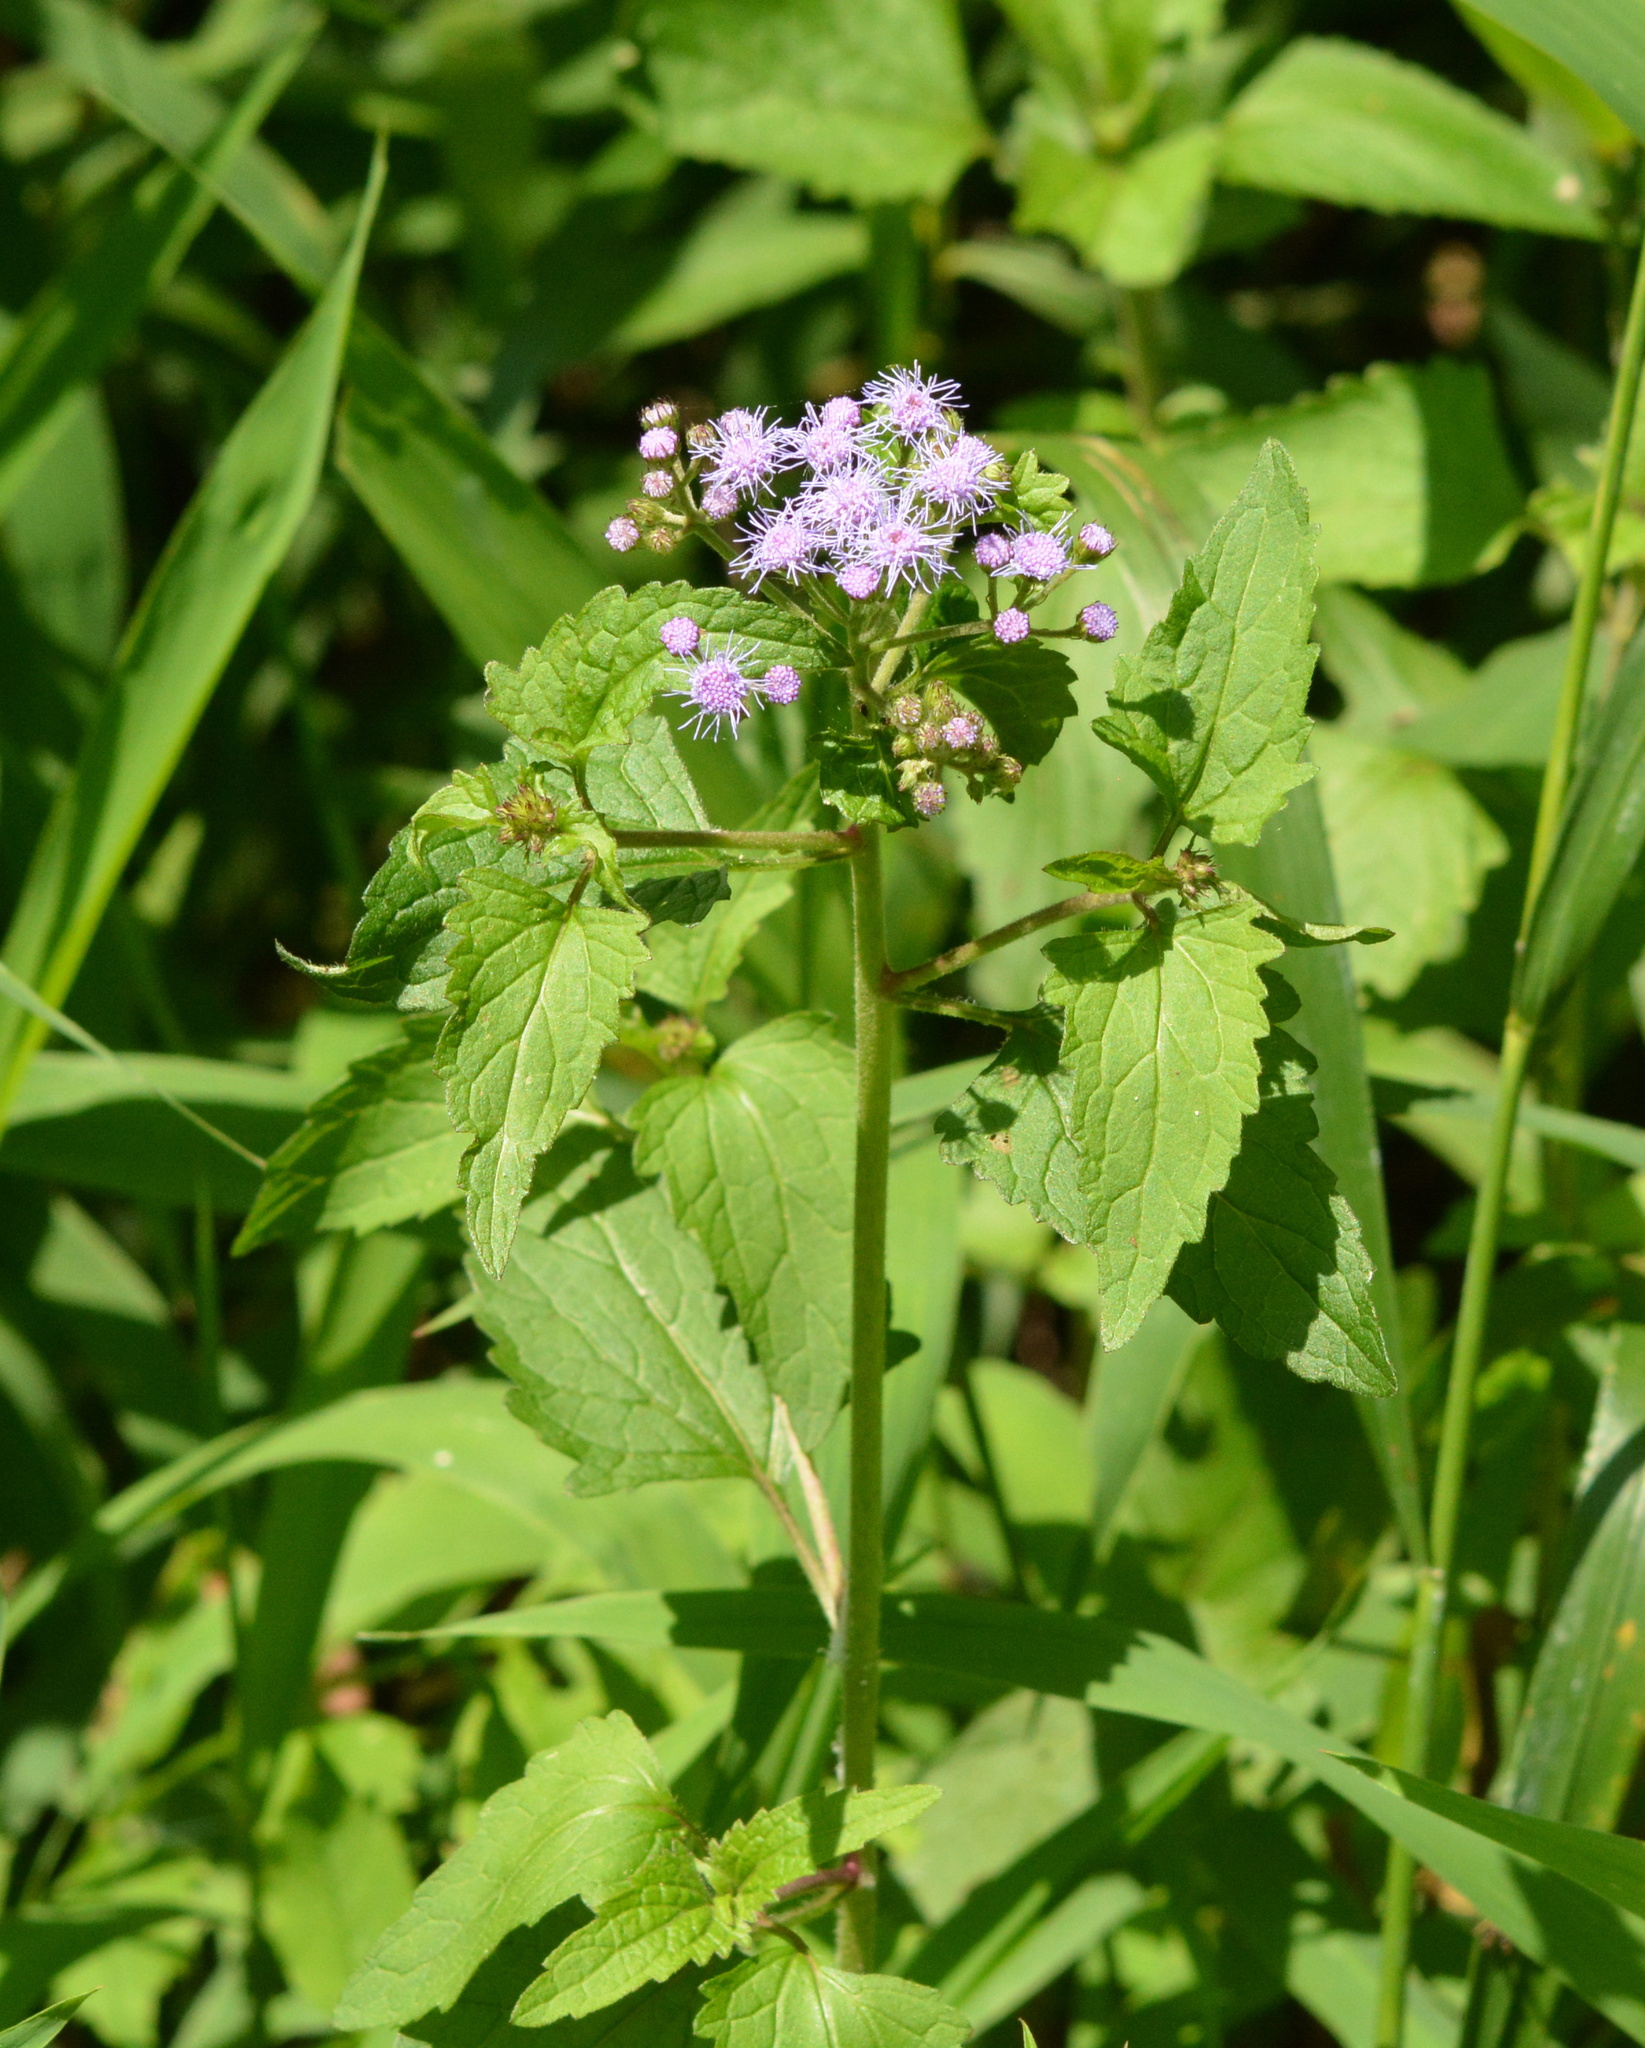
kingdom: Plantae
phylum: Tracheophyta
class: Magnoliopsida
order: Asterales
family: Asteraceae
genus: Conoclinium
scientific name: Conoclinium coelestinum
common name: Blue mistflower
